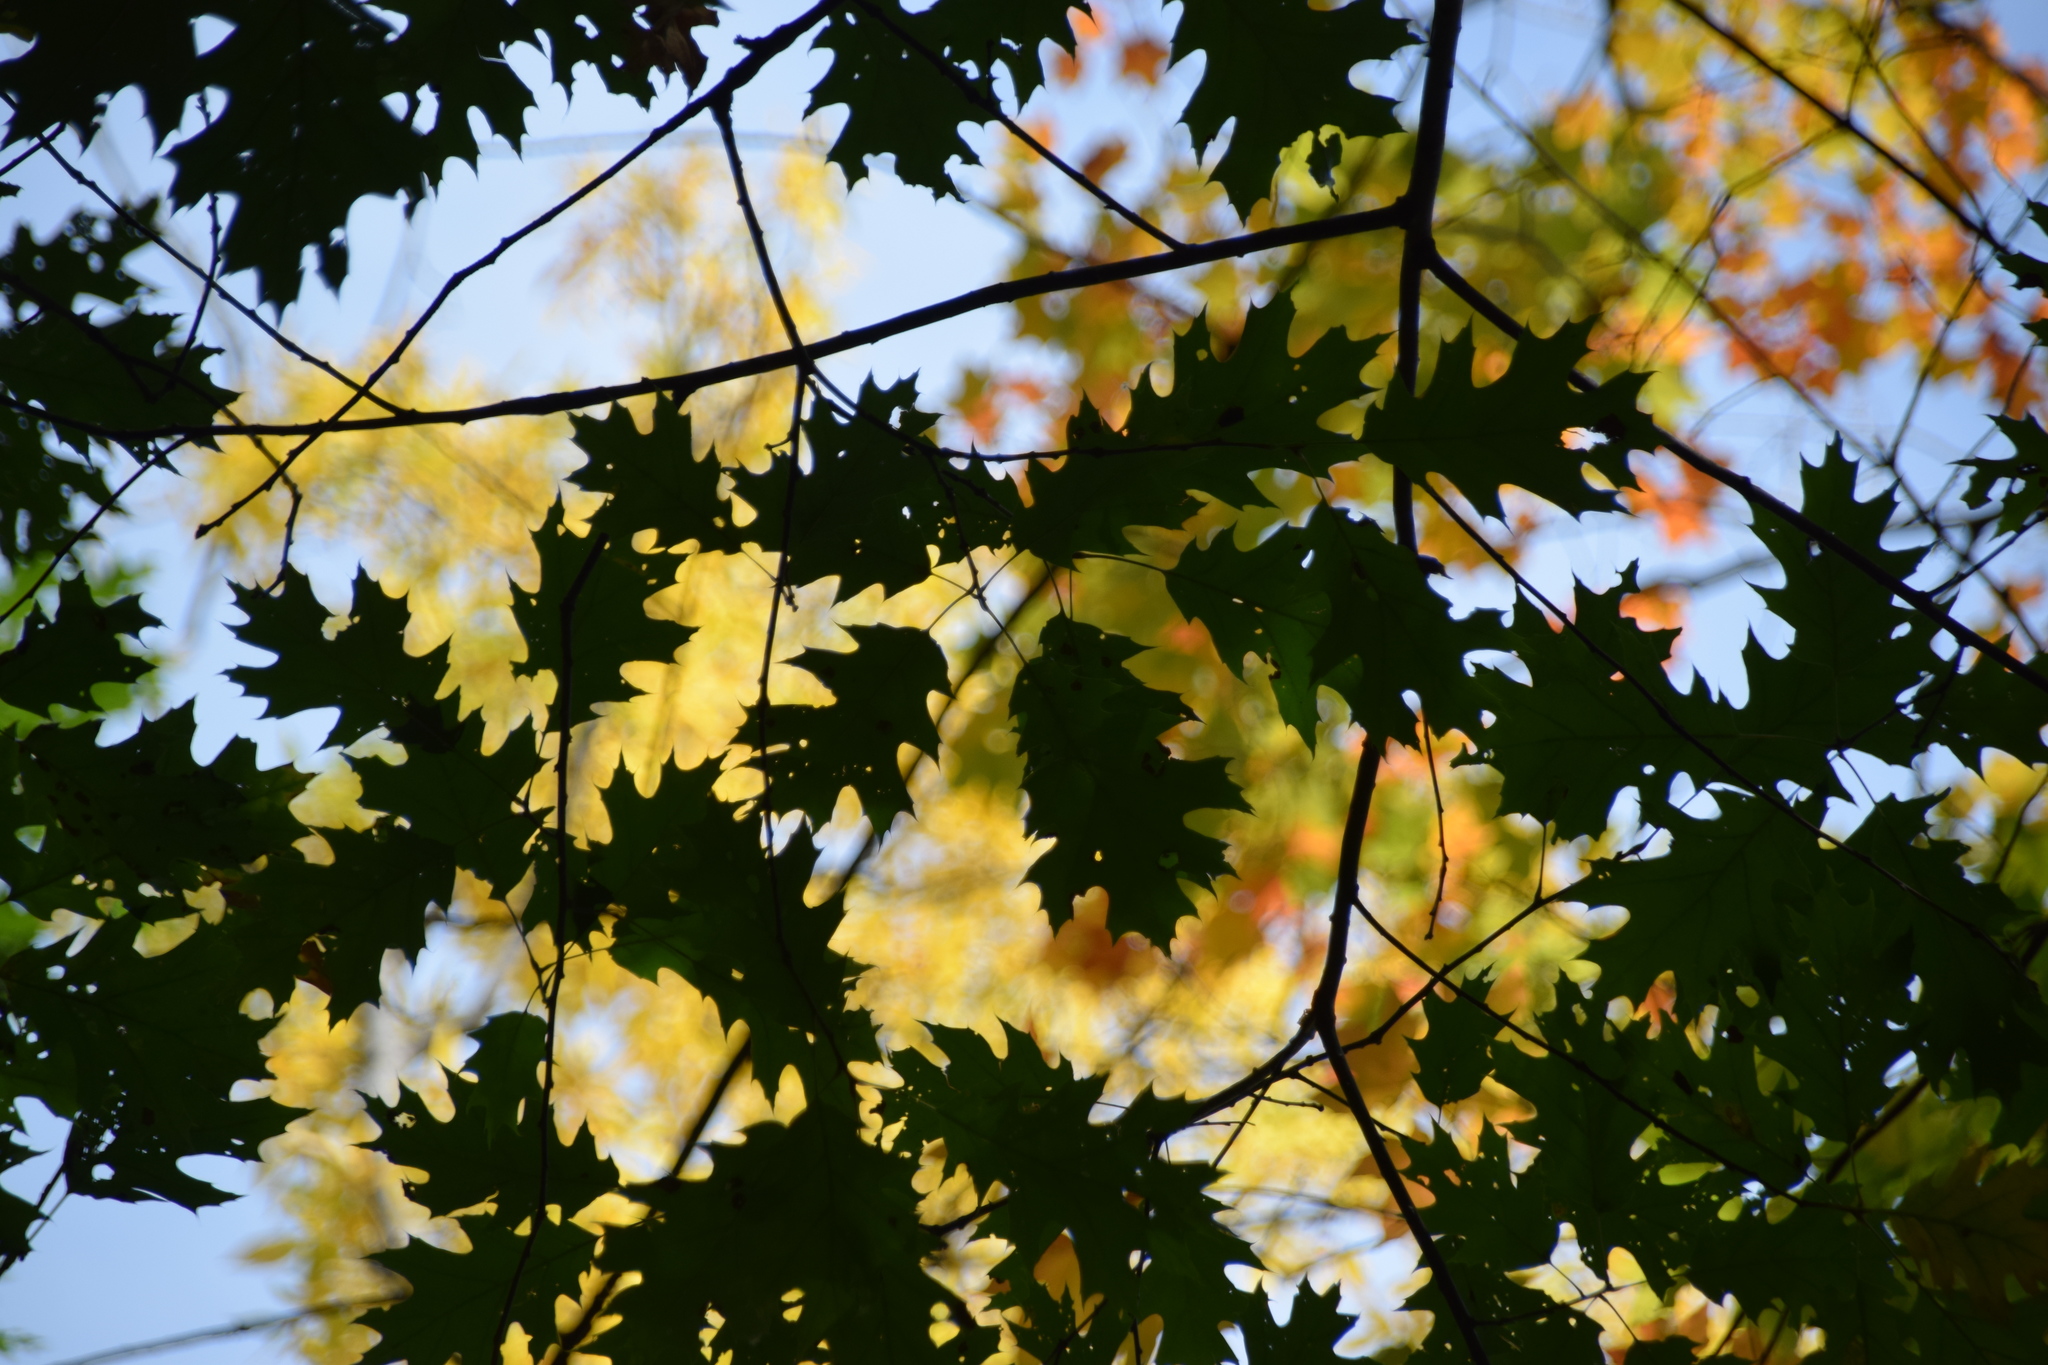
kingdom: Plantae
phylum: Tracheophyta
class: Magnoliopsida
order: Fagales
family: Fagaceae
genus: Quercus
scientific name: Quercus rubra
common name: Red oak
